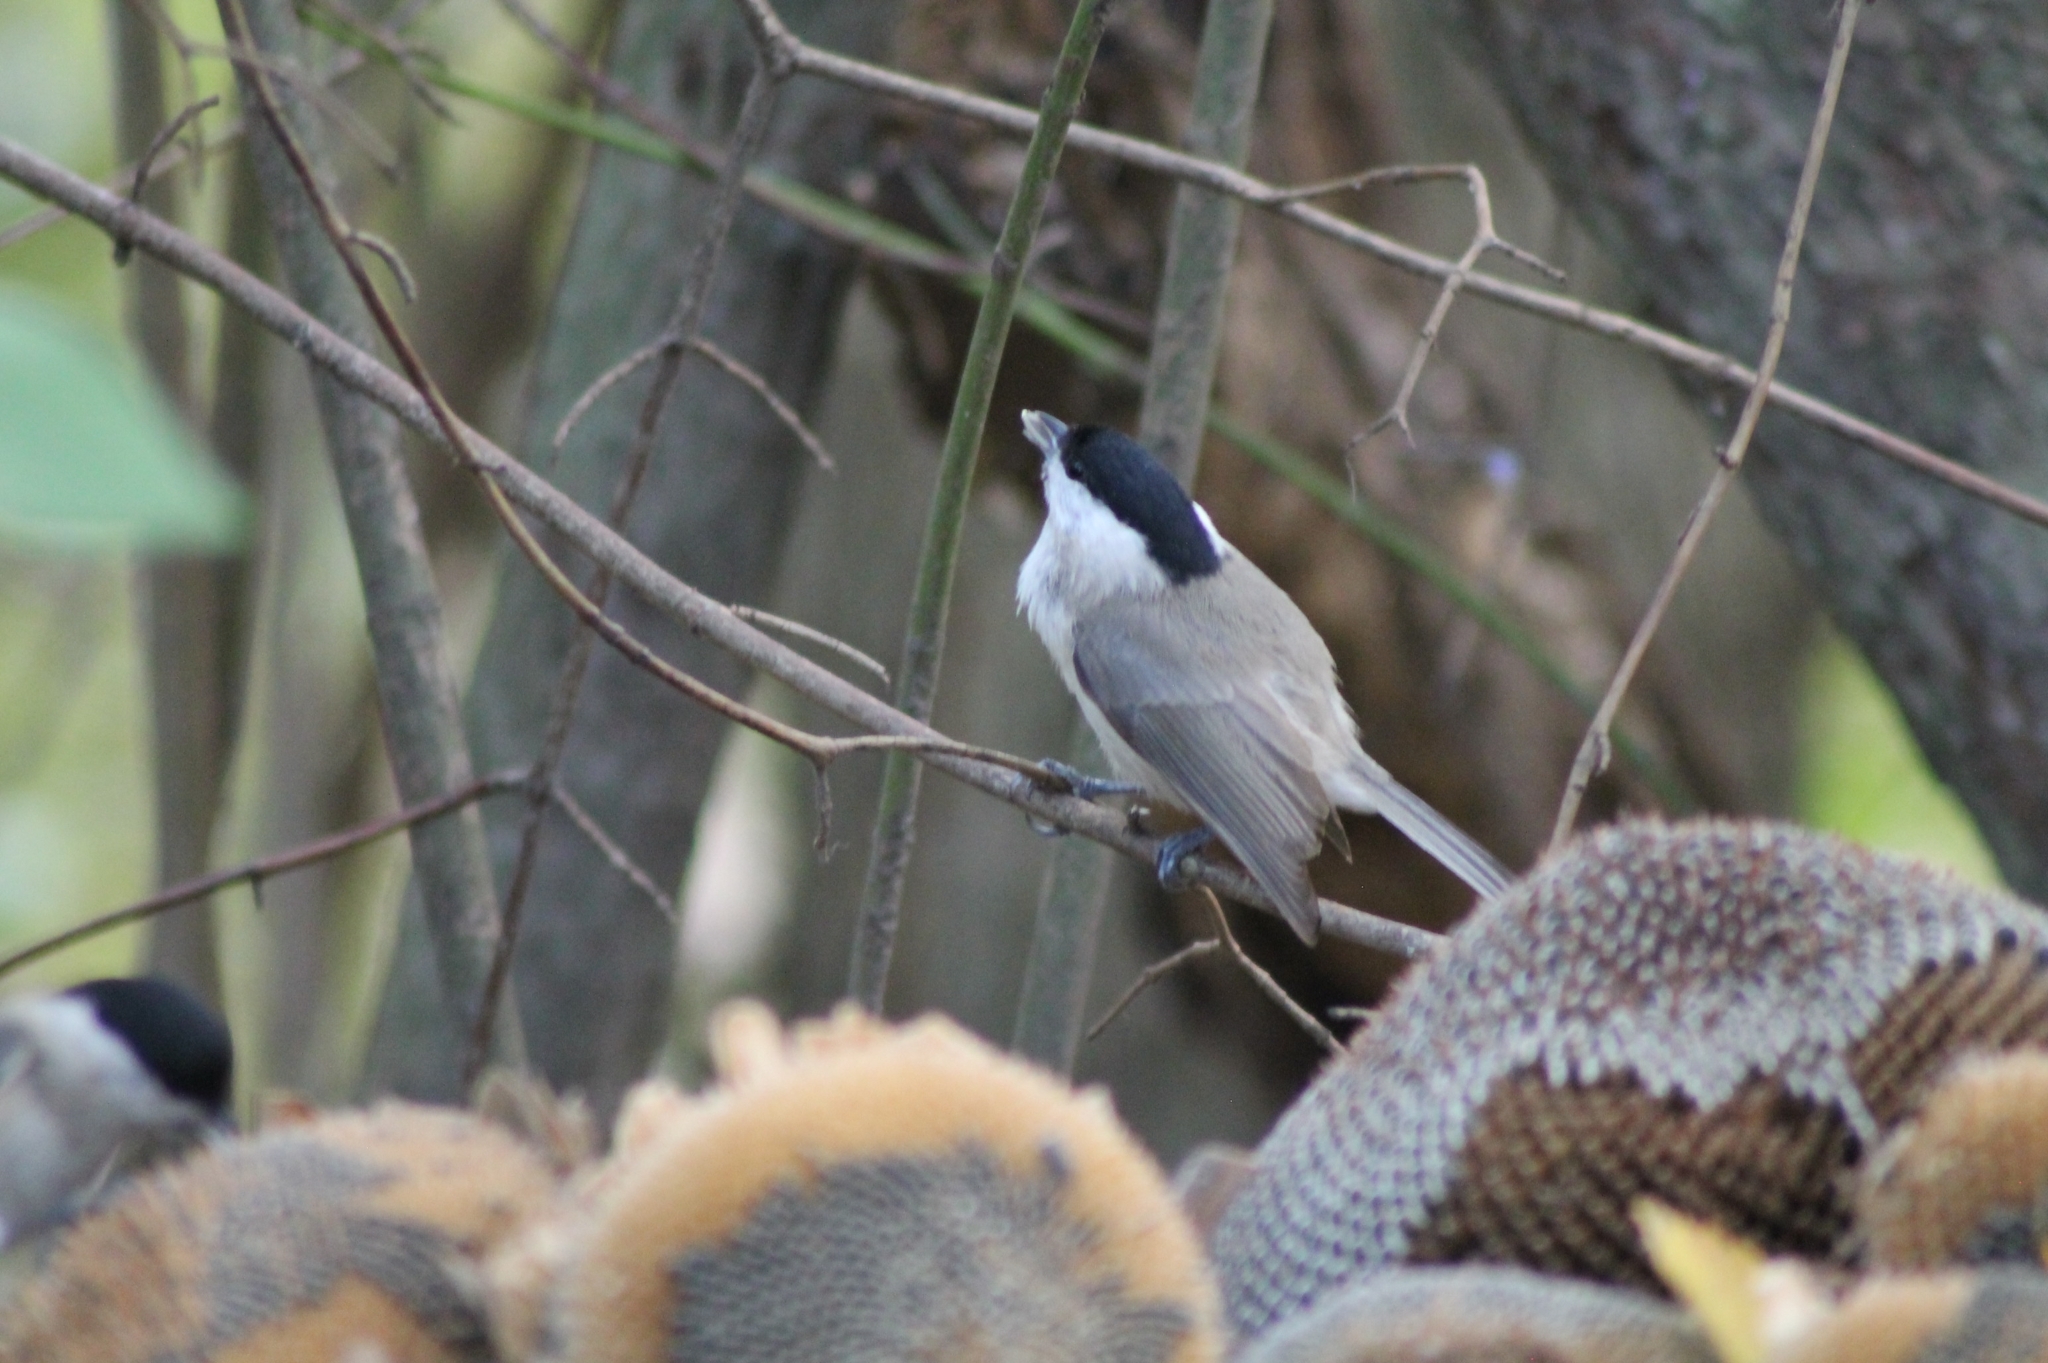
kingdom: Animalia
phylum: Chordata
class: Aves
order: Passeriformes
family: Paridae
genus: Poecile
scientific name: Poecile palustris
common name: Marsh tit
